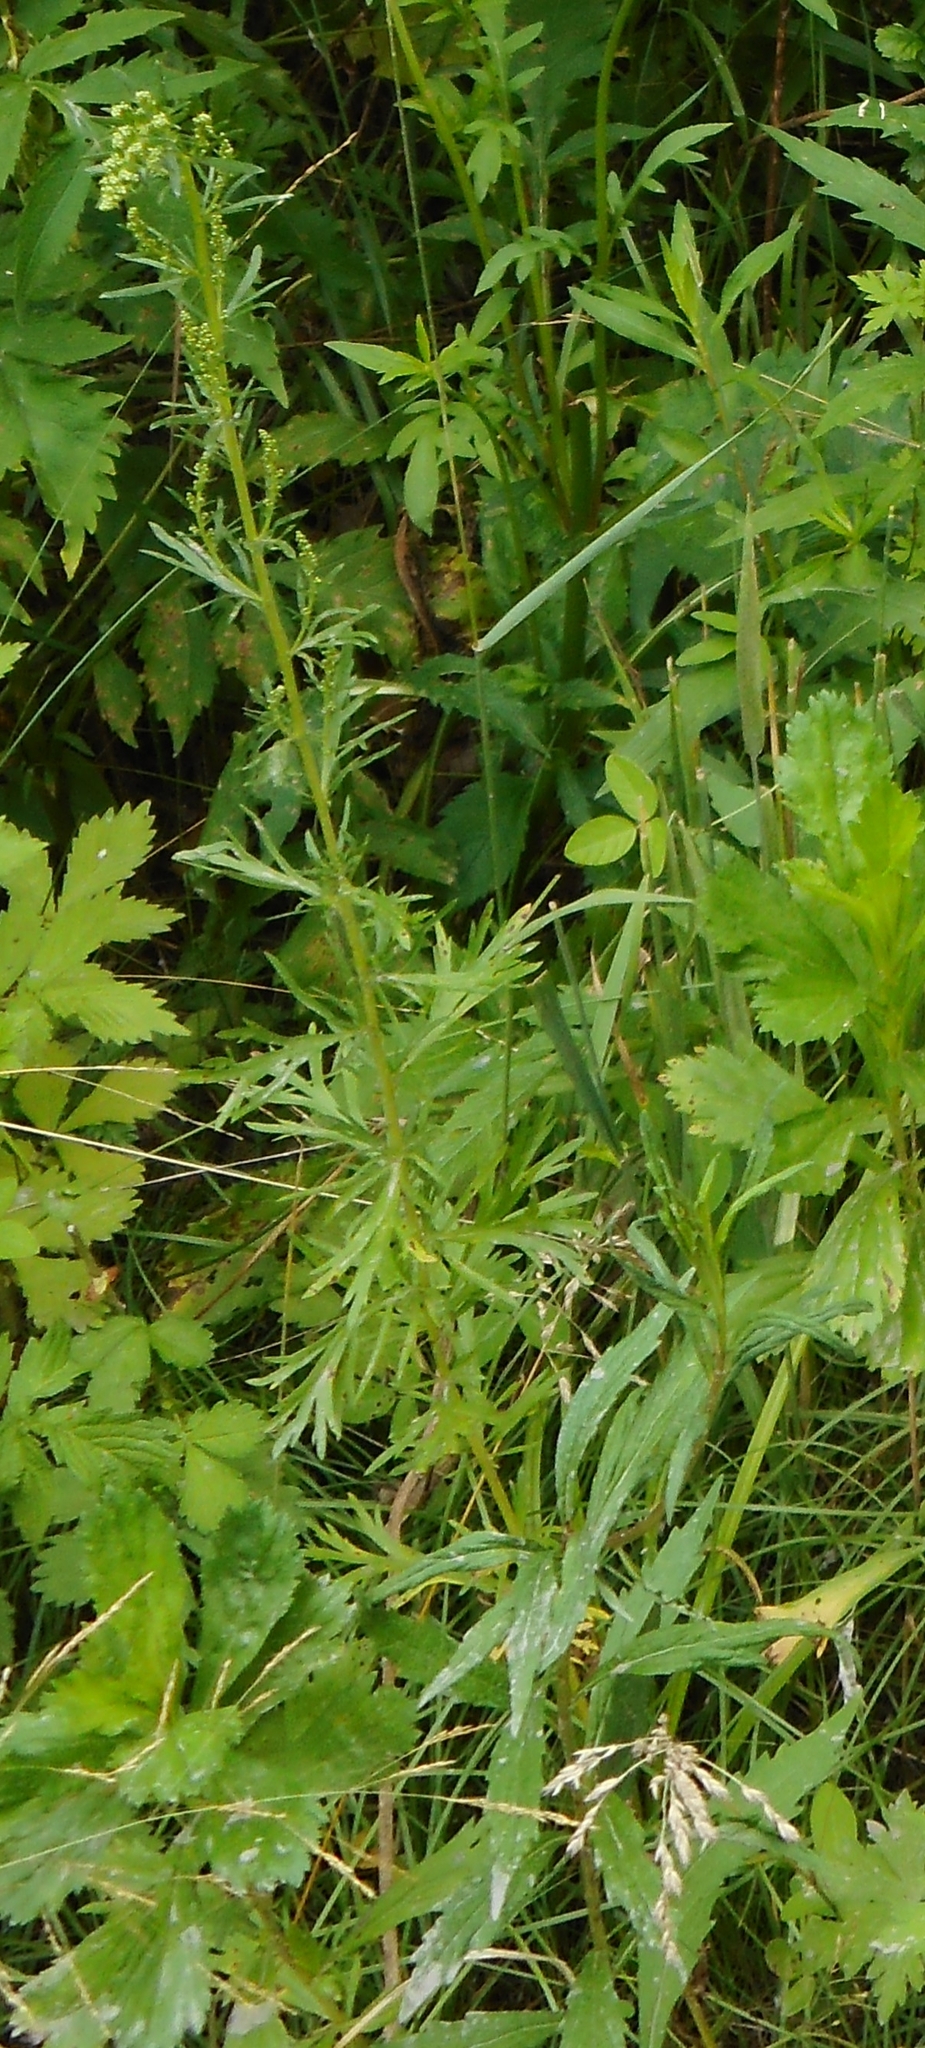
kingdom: Plantae
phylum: Tracheophyta
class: Magnoliopsida
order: Asterales
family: Asteraceae
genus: Artemisia
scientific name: Artemisia manshurica
